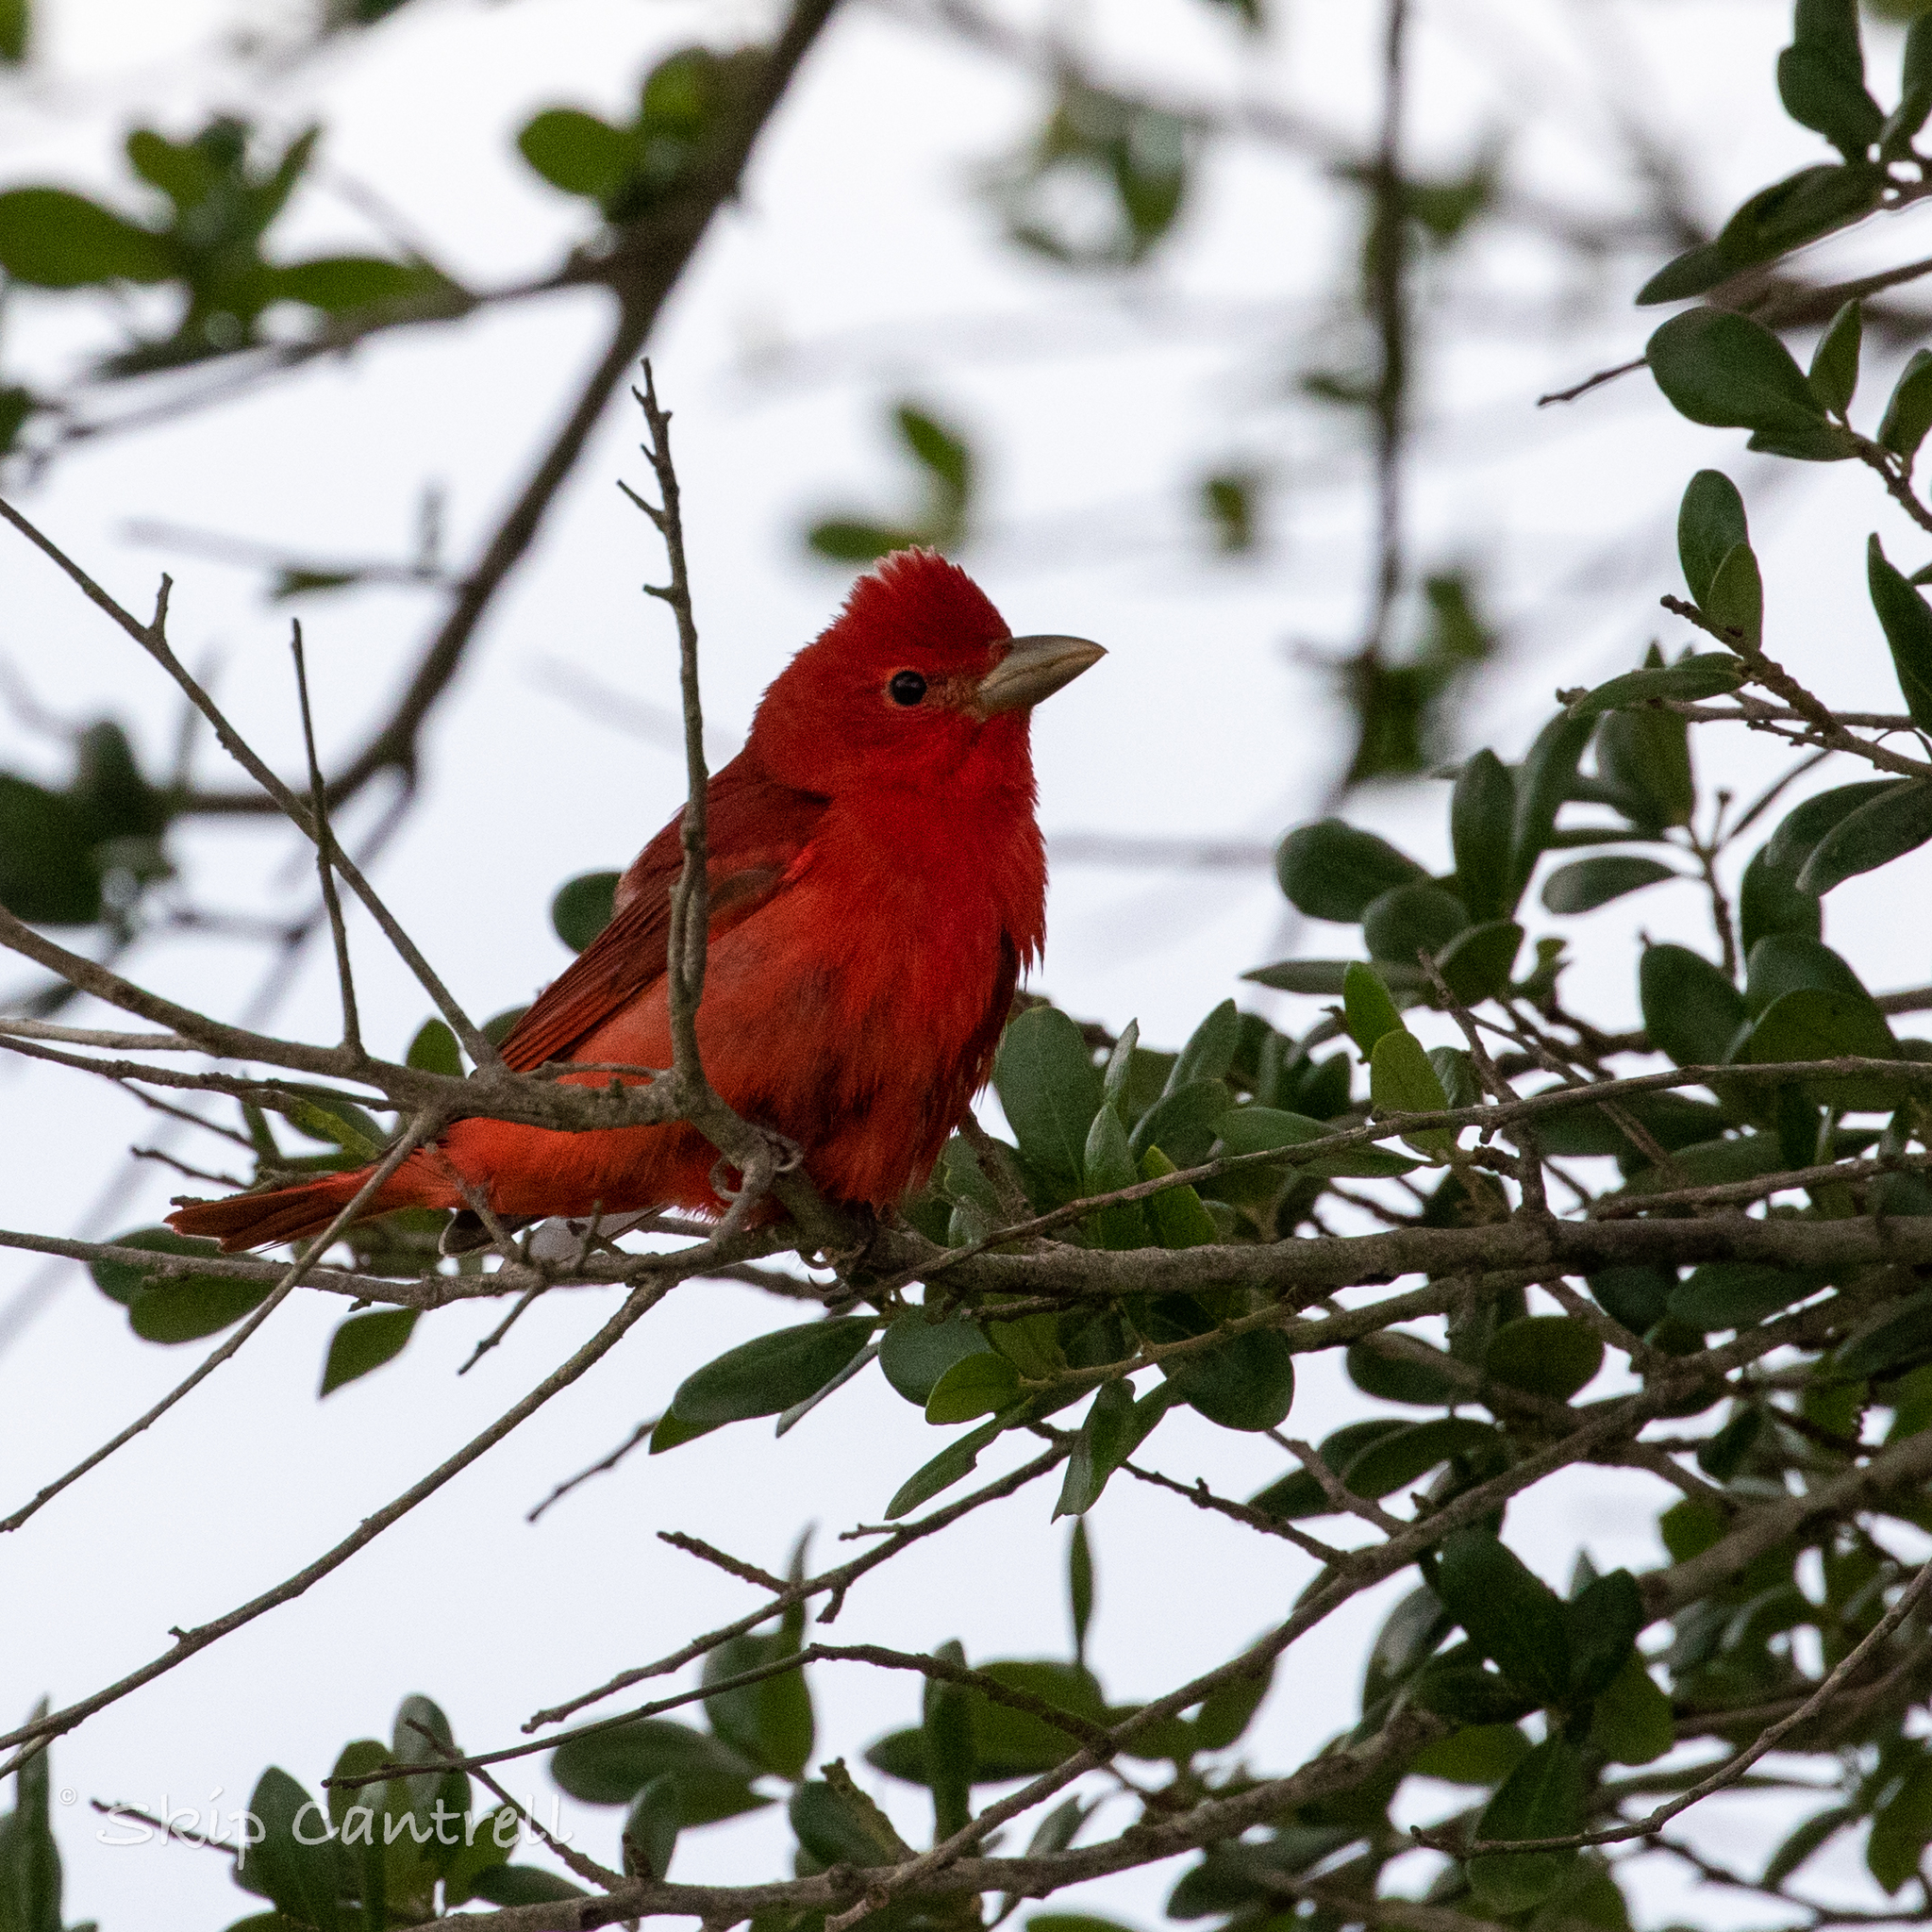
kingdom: Animalia
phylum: Chordata
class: Aves
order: Passeriformes
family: Cardinalidae
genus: Piranga
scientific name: Piranga rubra
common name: Summer tanager
